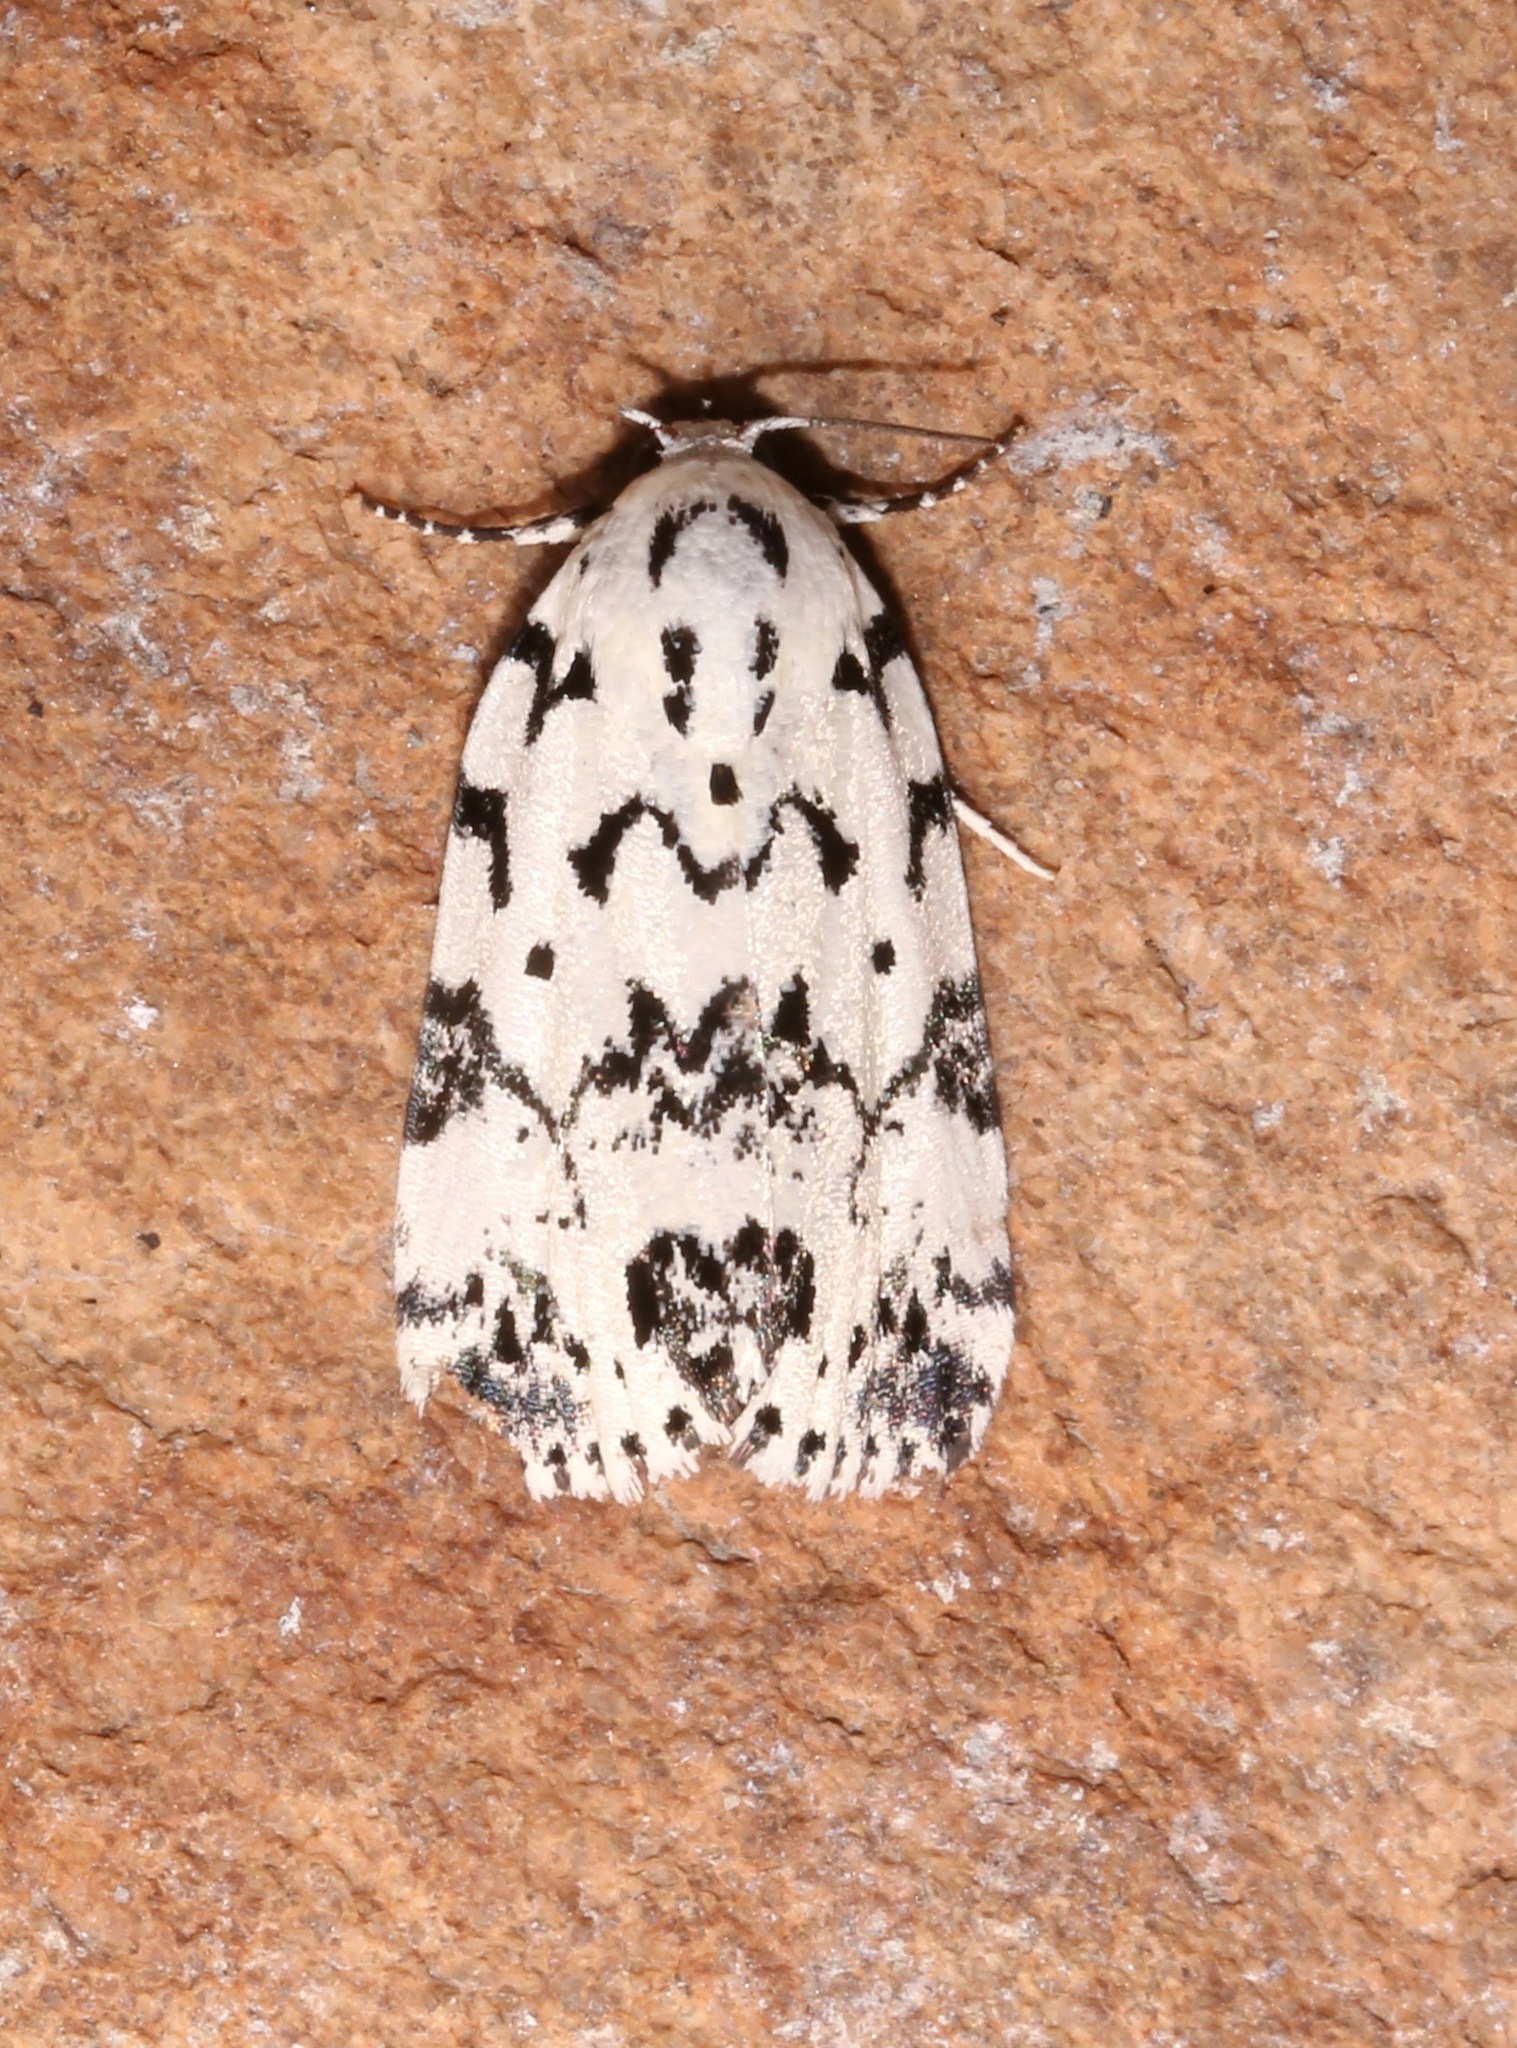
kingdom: Animalia
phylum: Arthropoda
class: Insecta
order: Lepidoptera
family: Noctuidae
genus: Polygrammate
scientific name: Polygrammate hebraeicum
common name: Hebrew moth
